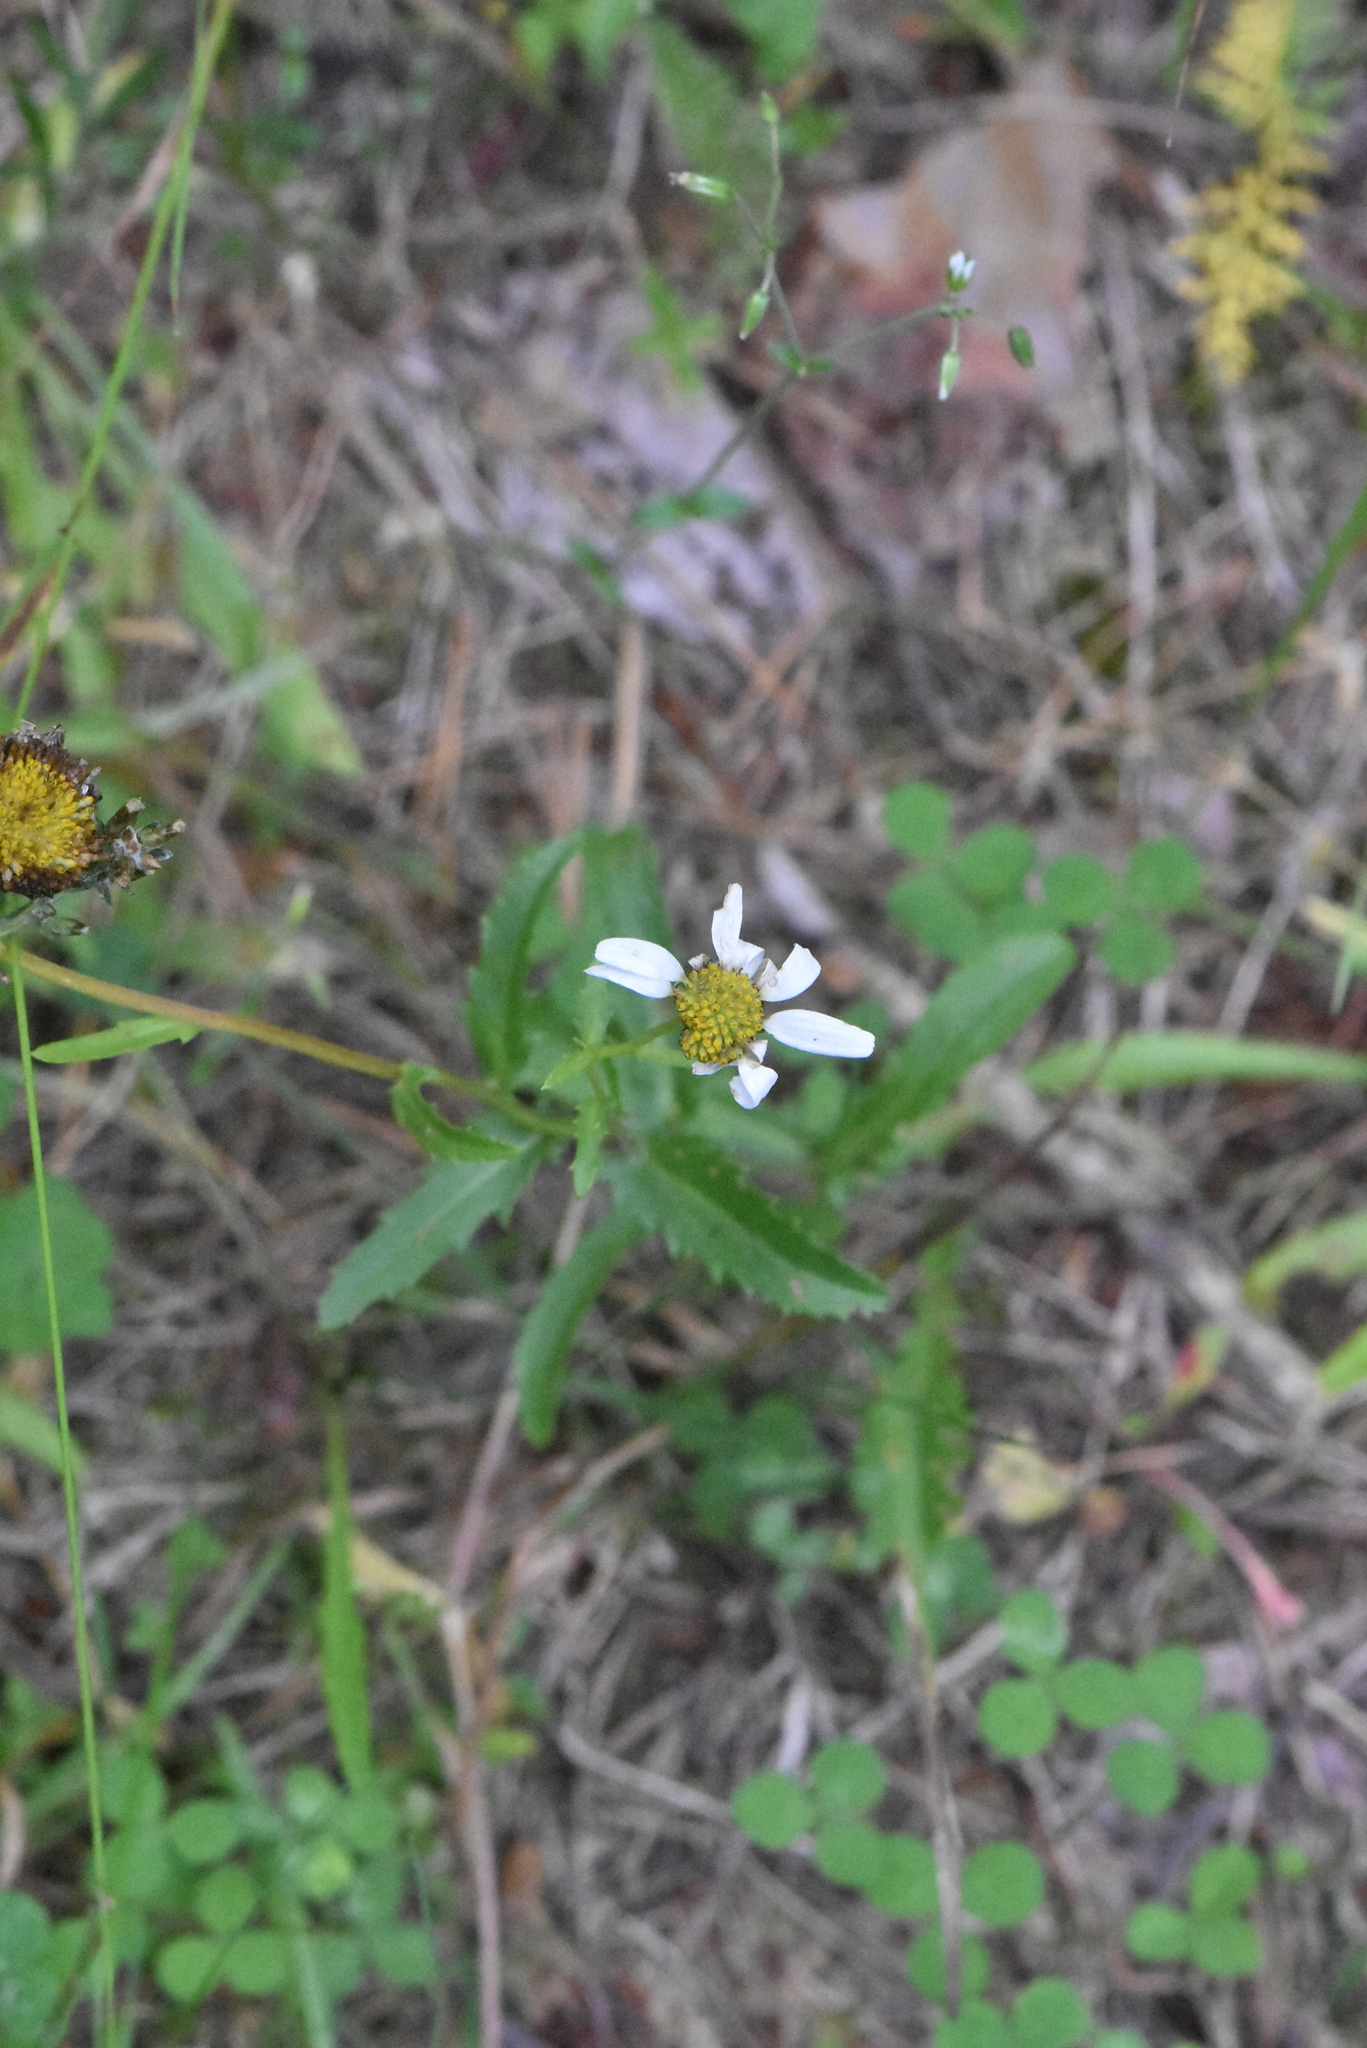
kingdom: Plantae
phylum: Tracheophyta
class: Magnoliopsida
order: Asterales
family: Asteraceae
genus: Leucanthemum
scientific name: Leucanthemum vulgare
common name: Oxeye daisy
